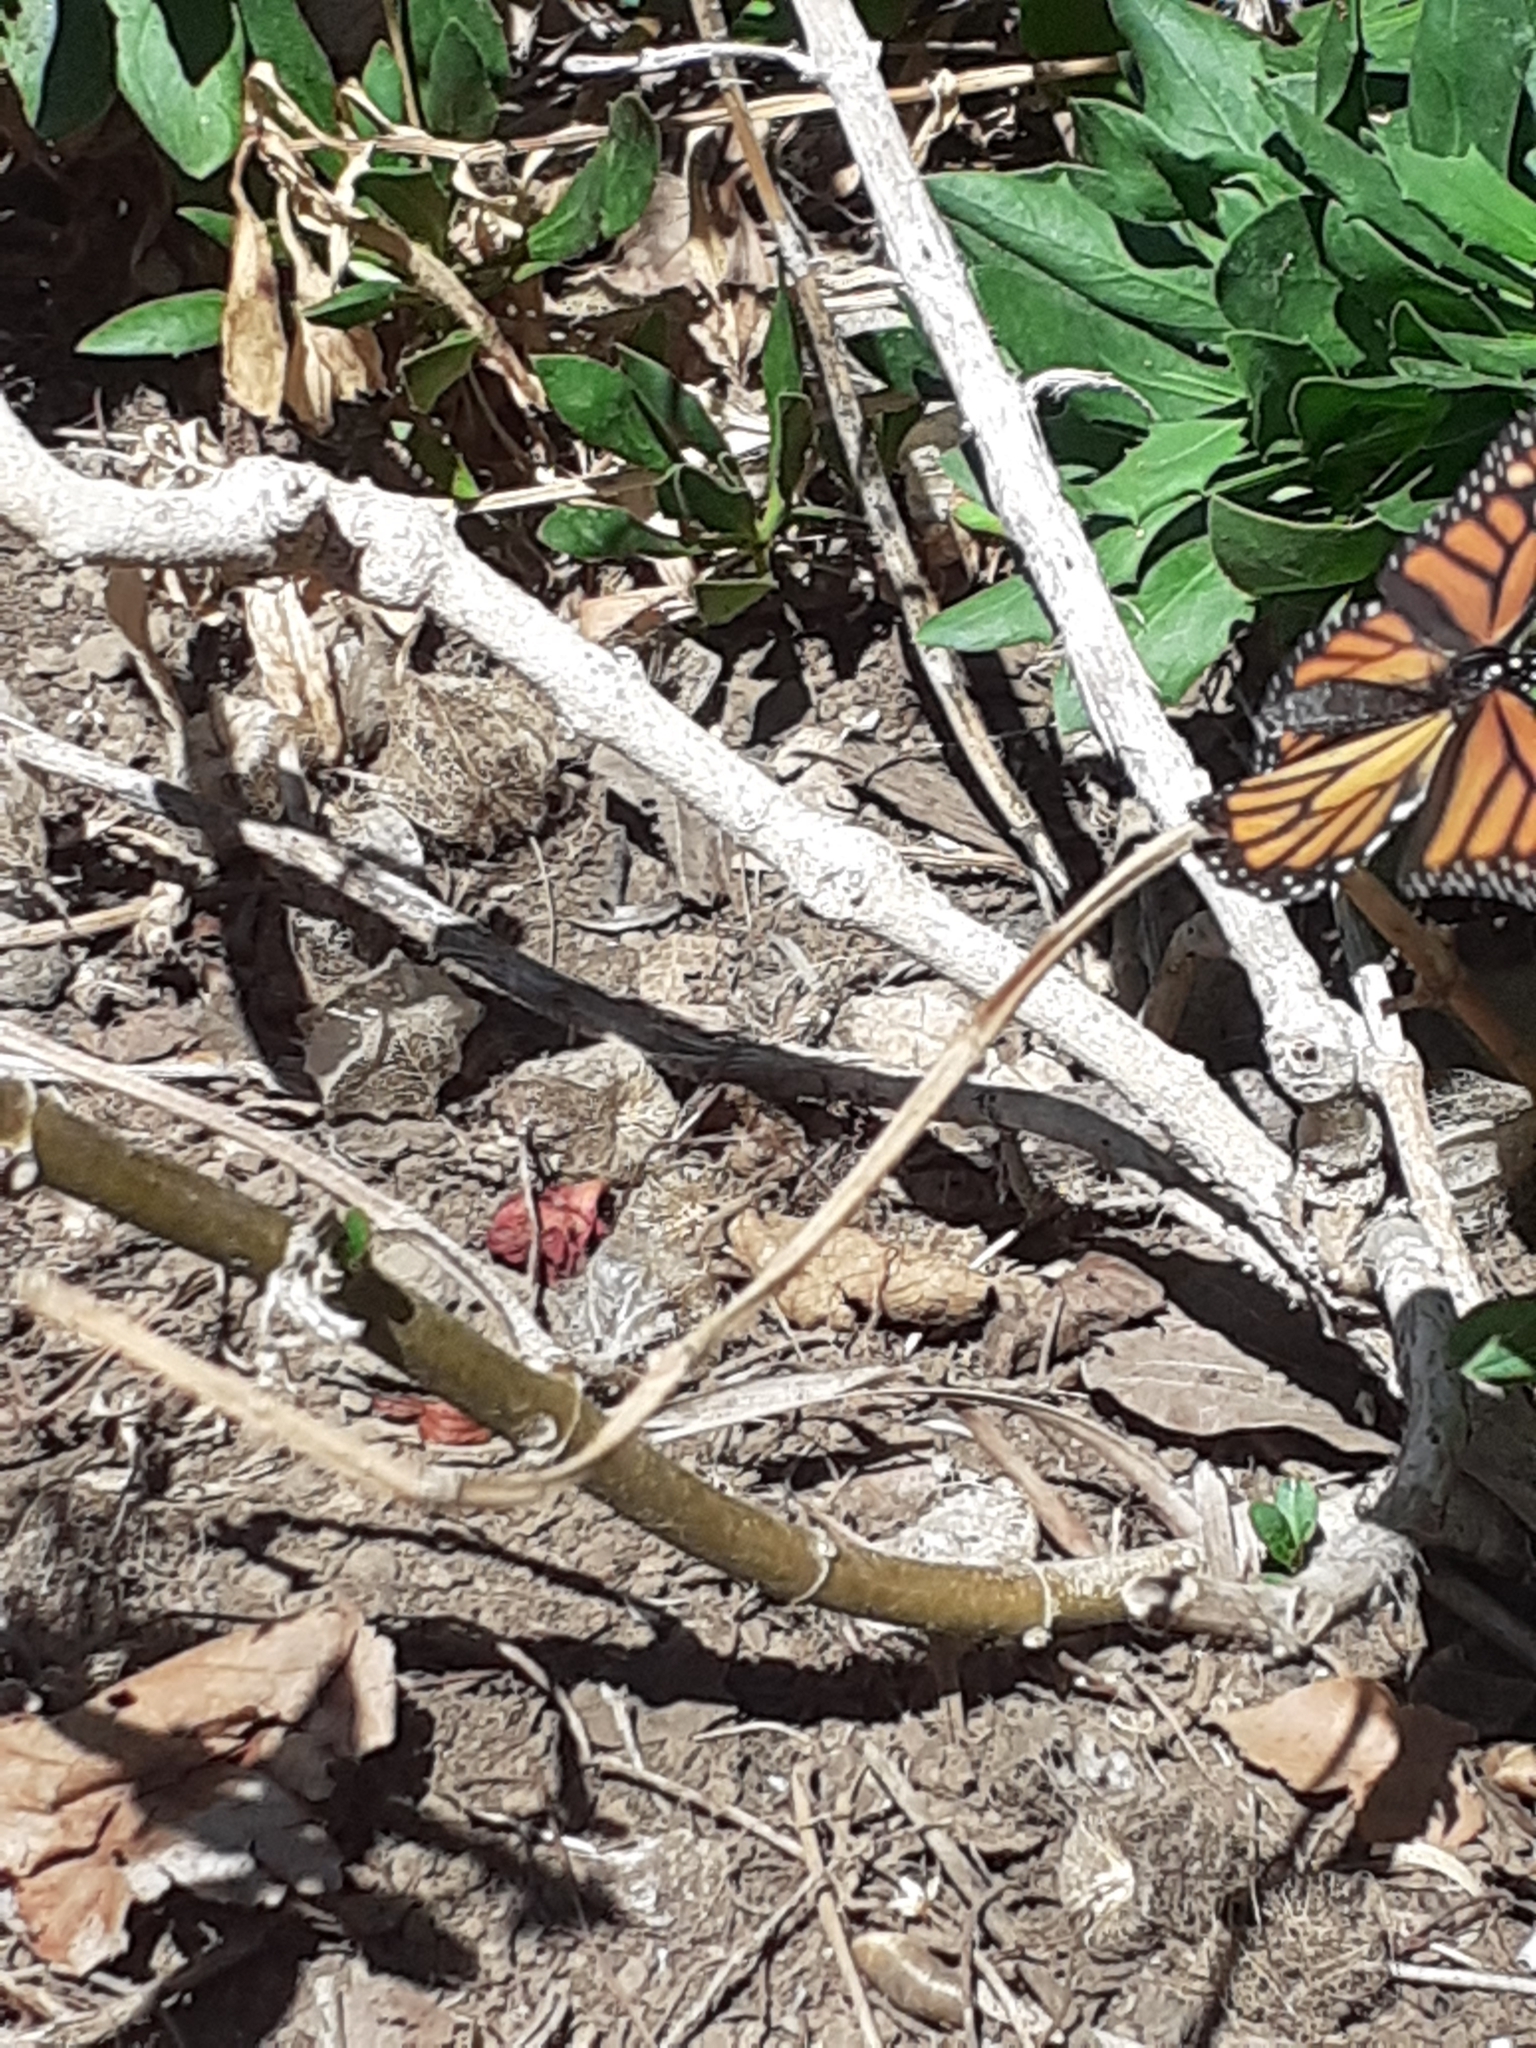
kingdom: Animalia
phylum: Arthropoda
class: Insecta
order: Lepidoptera
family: Nymphalidae
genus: Danaus
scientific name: Danaus plexippus
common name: Monarch
